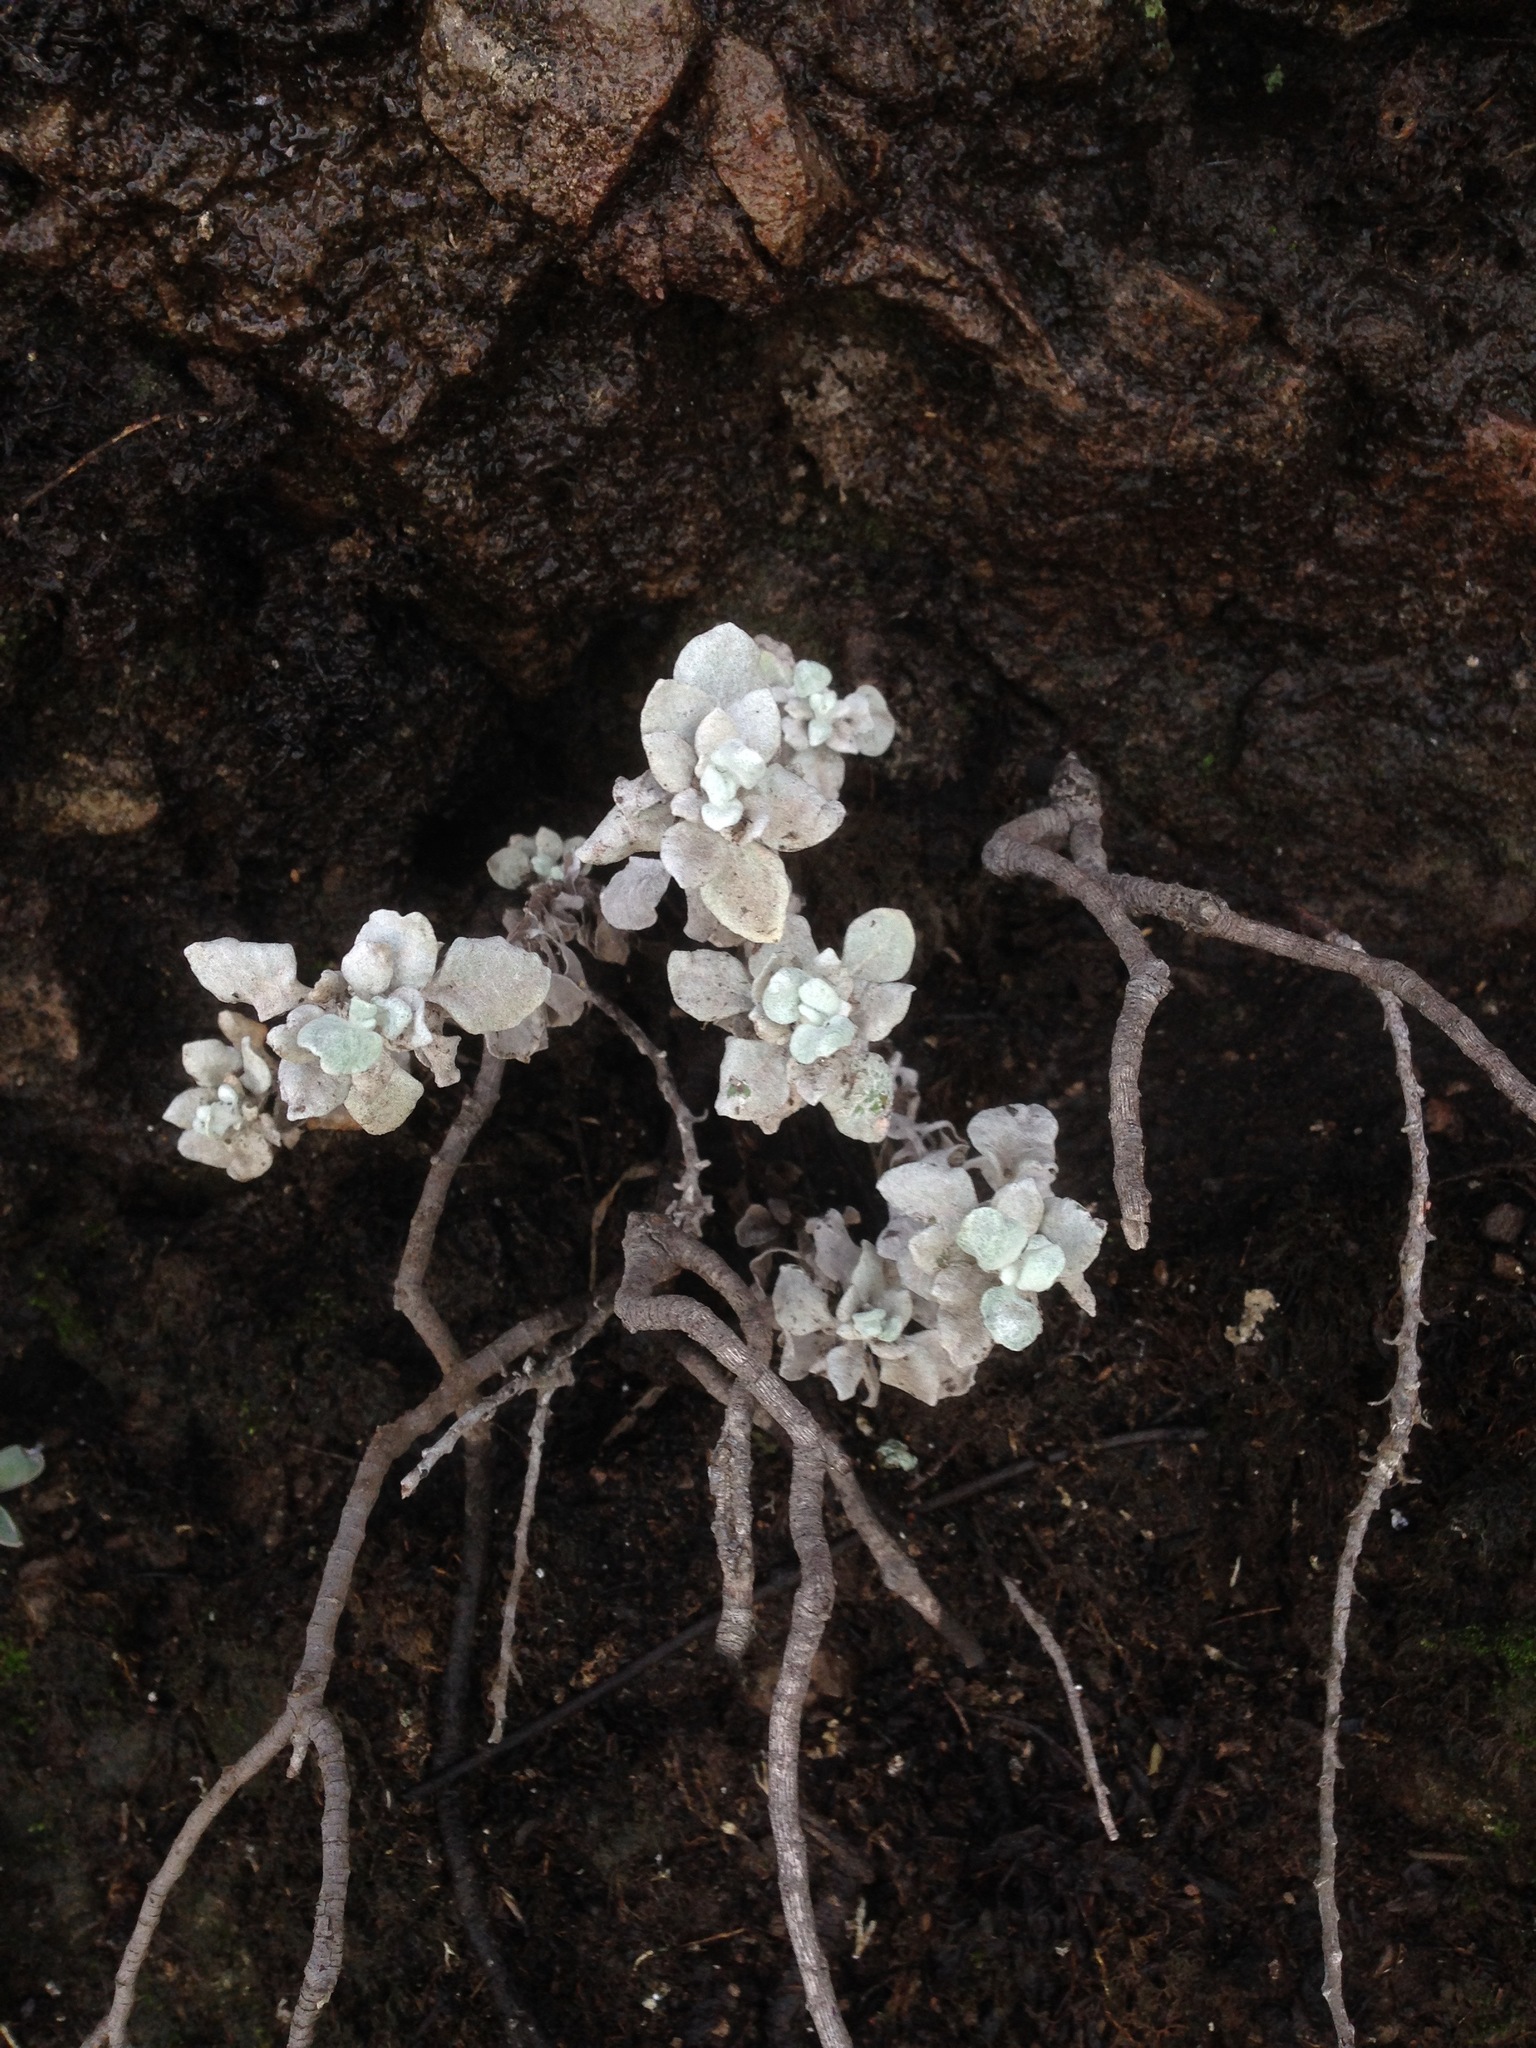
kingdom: Plantae
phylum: Tracheophyta
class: Magnoliopsida
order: Caryophyllales
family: Polygonaceae
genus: Eriogonum
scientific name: Eriogonum crocatum
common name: Saffron wild buckwheat
